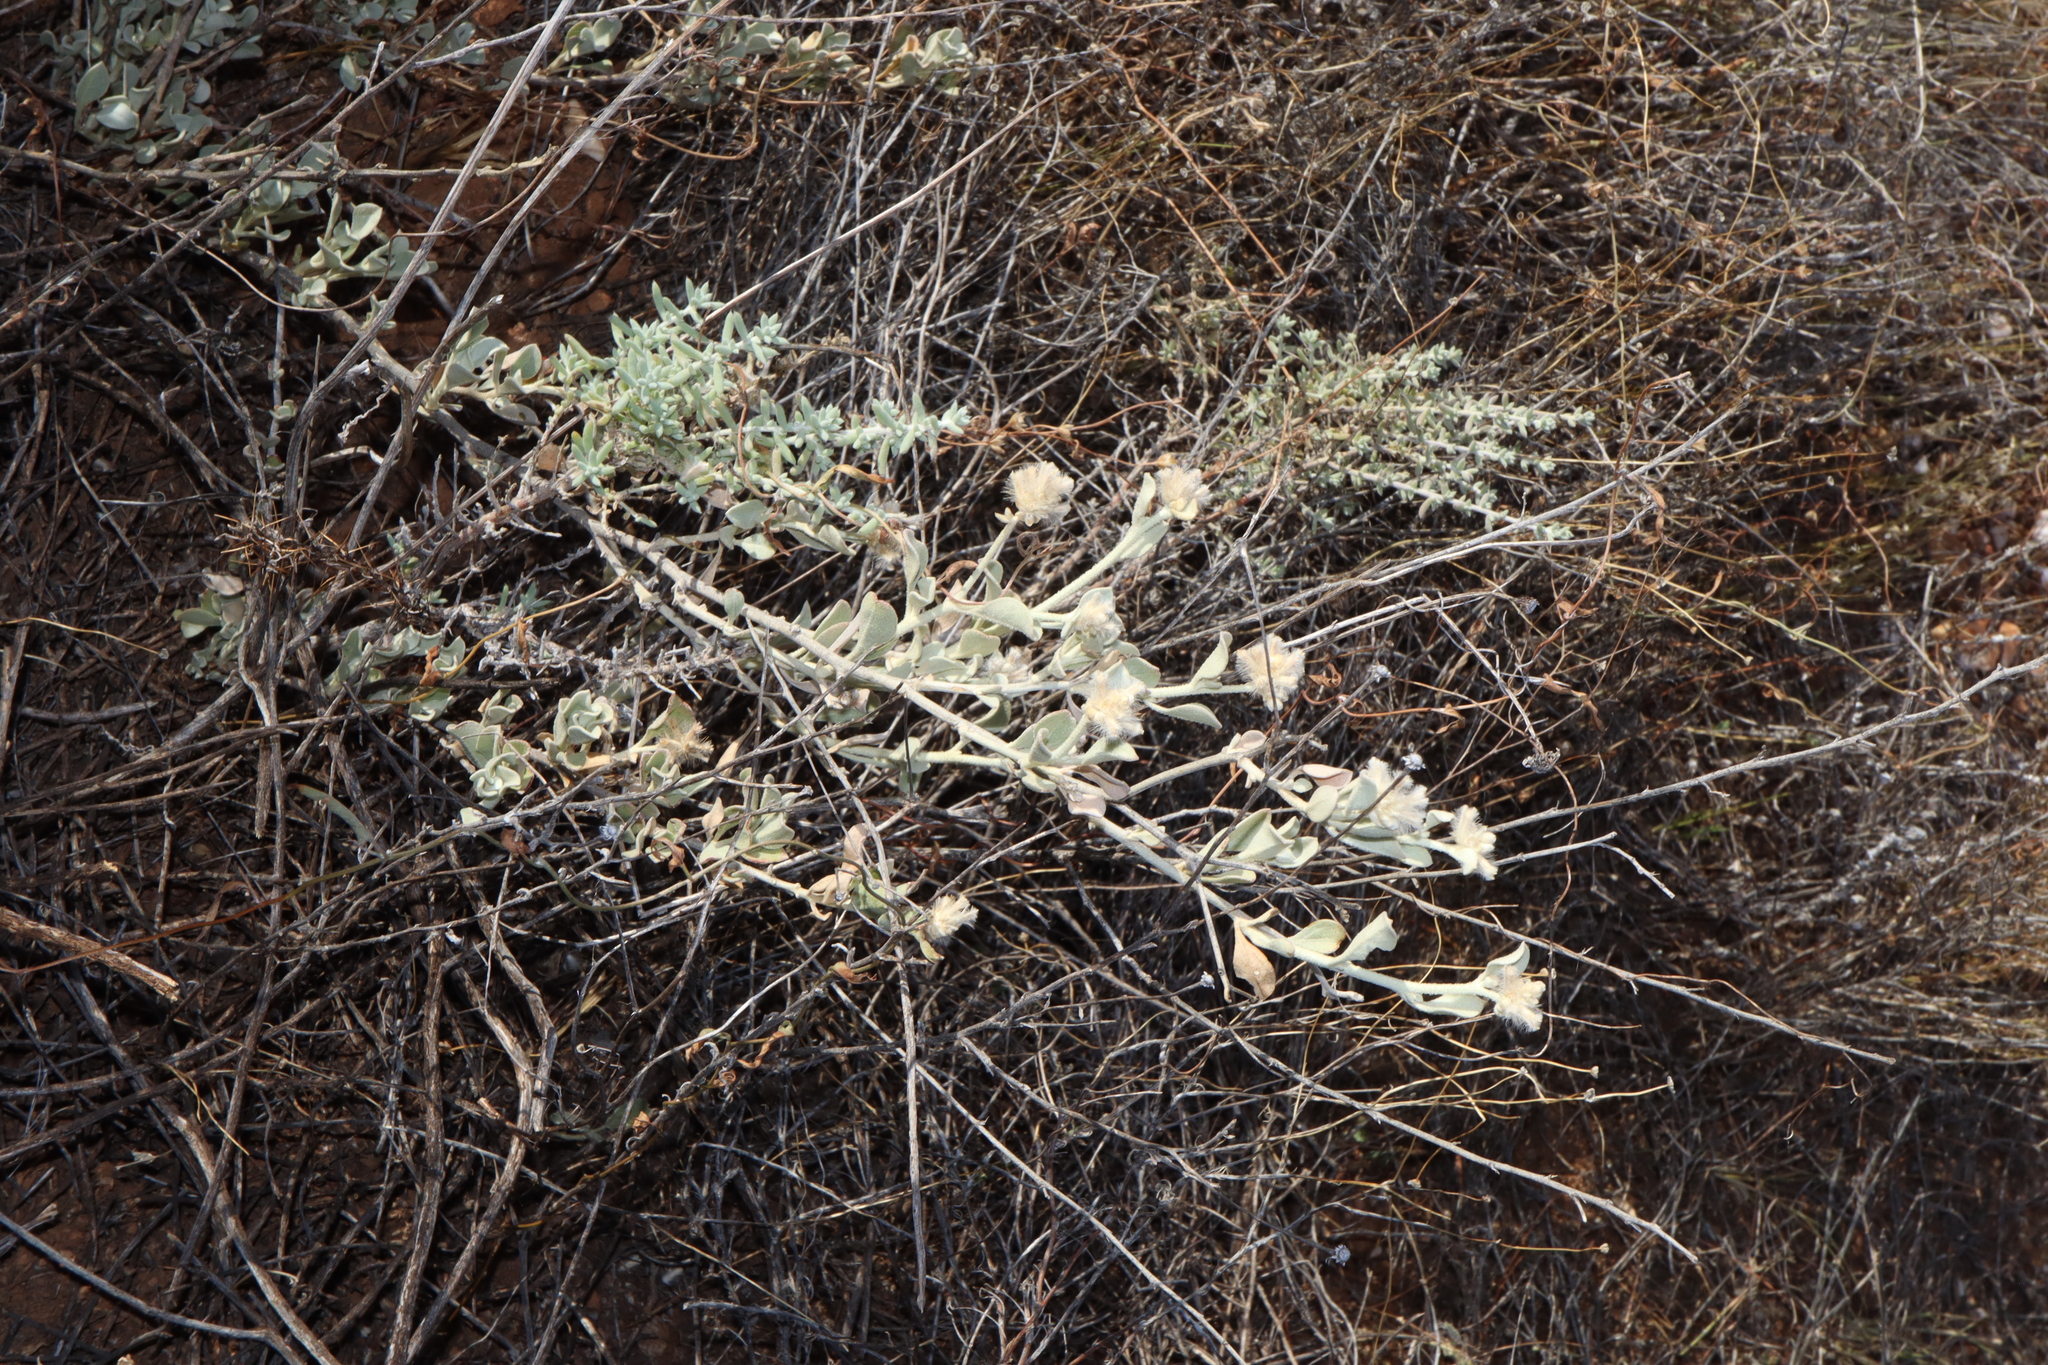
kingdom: Plantae
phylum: Tracheophyta
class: Magnoliopsida
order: Caryophyllales
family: Amaranthaceae
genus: Ptilotus
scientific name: Ptilotus obovatus
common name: Cottonbush
